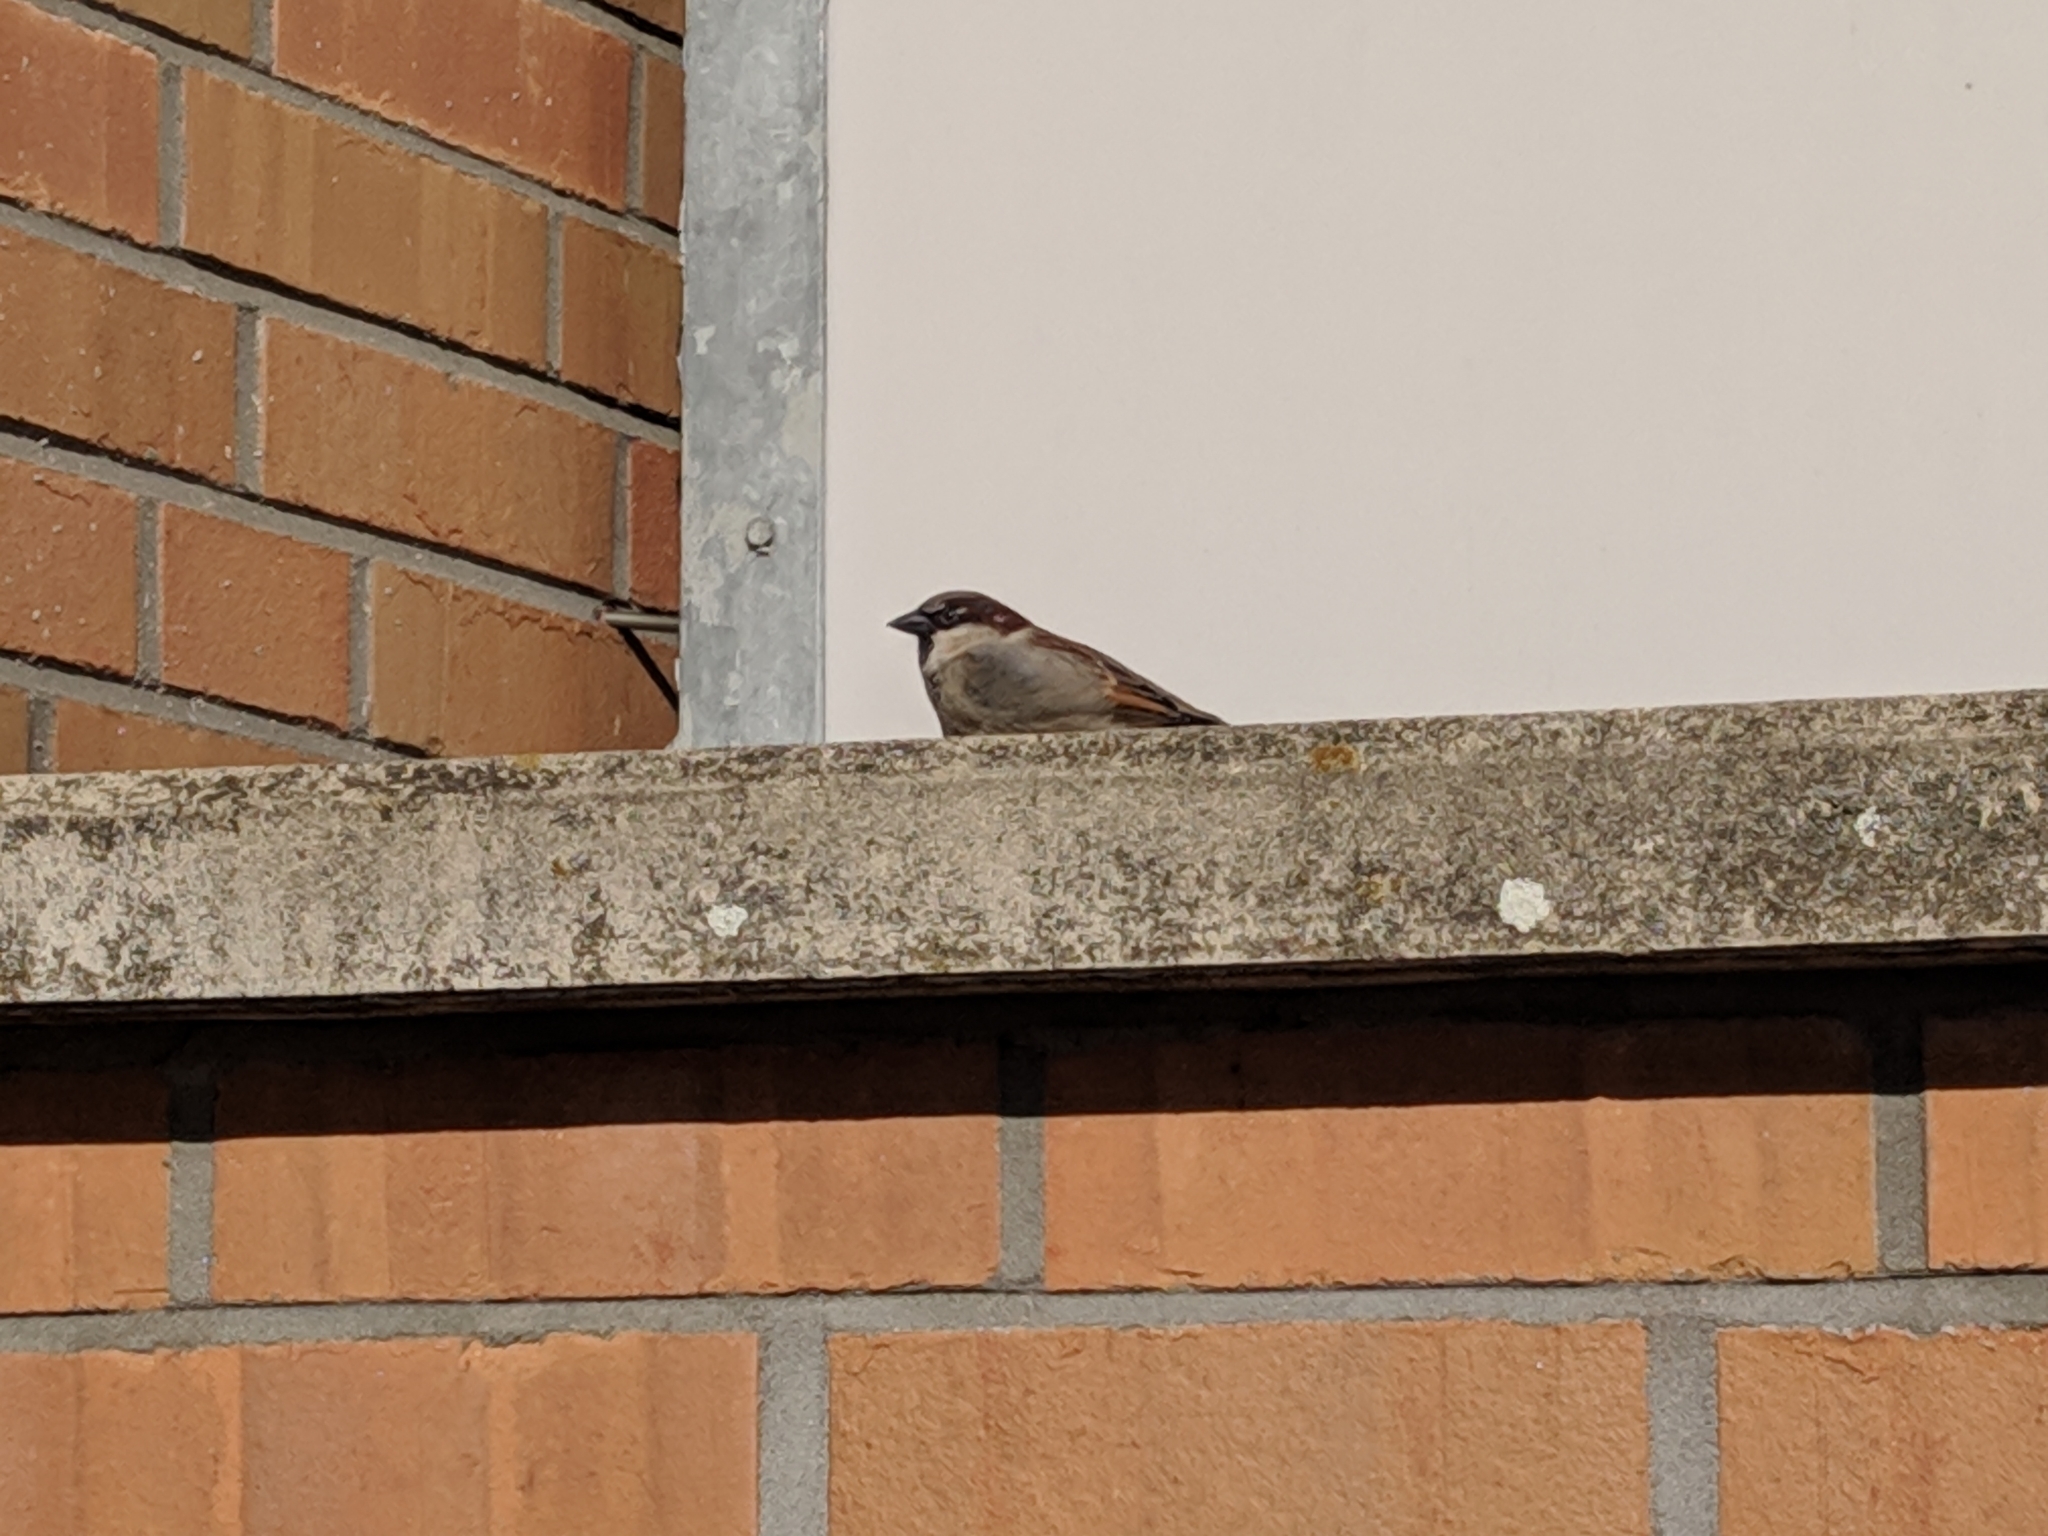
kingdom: Animalia
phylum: Chordata
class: Aves
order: Passeriformes
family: Passeridae
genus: Passer
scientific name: Passer domesticus
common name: House sparrow
